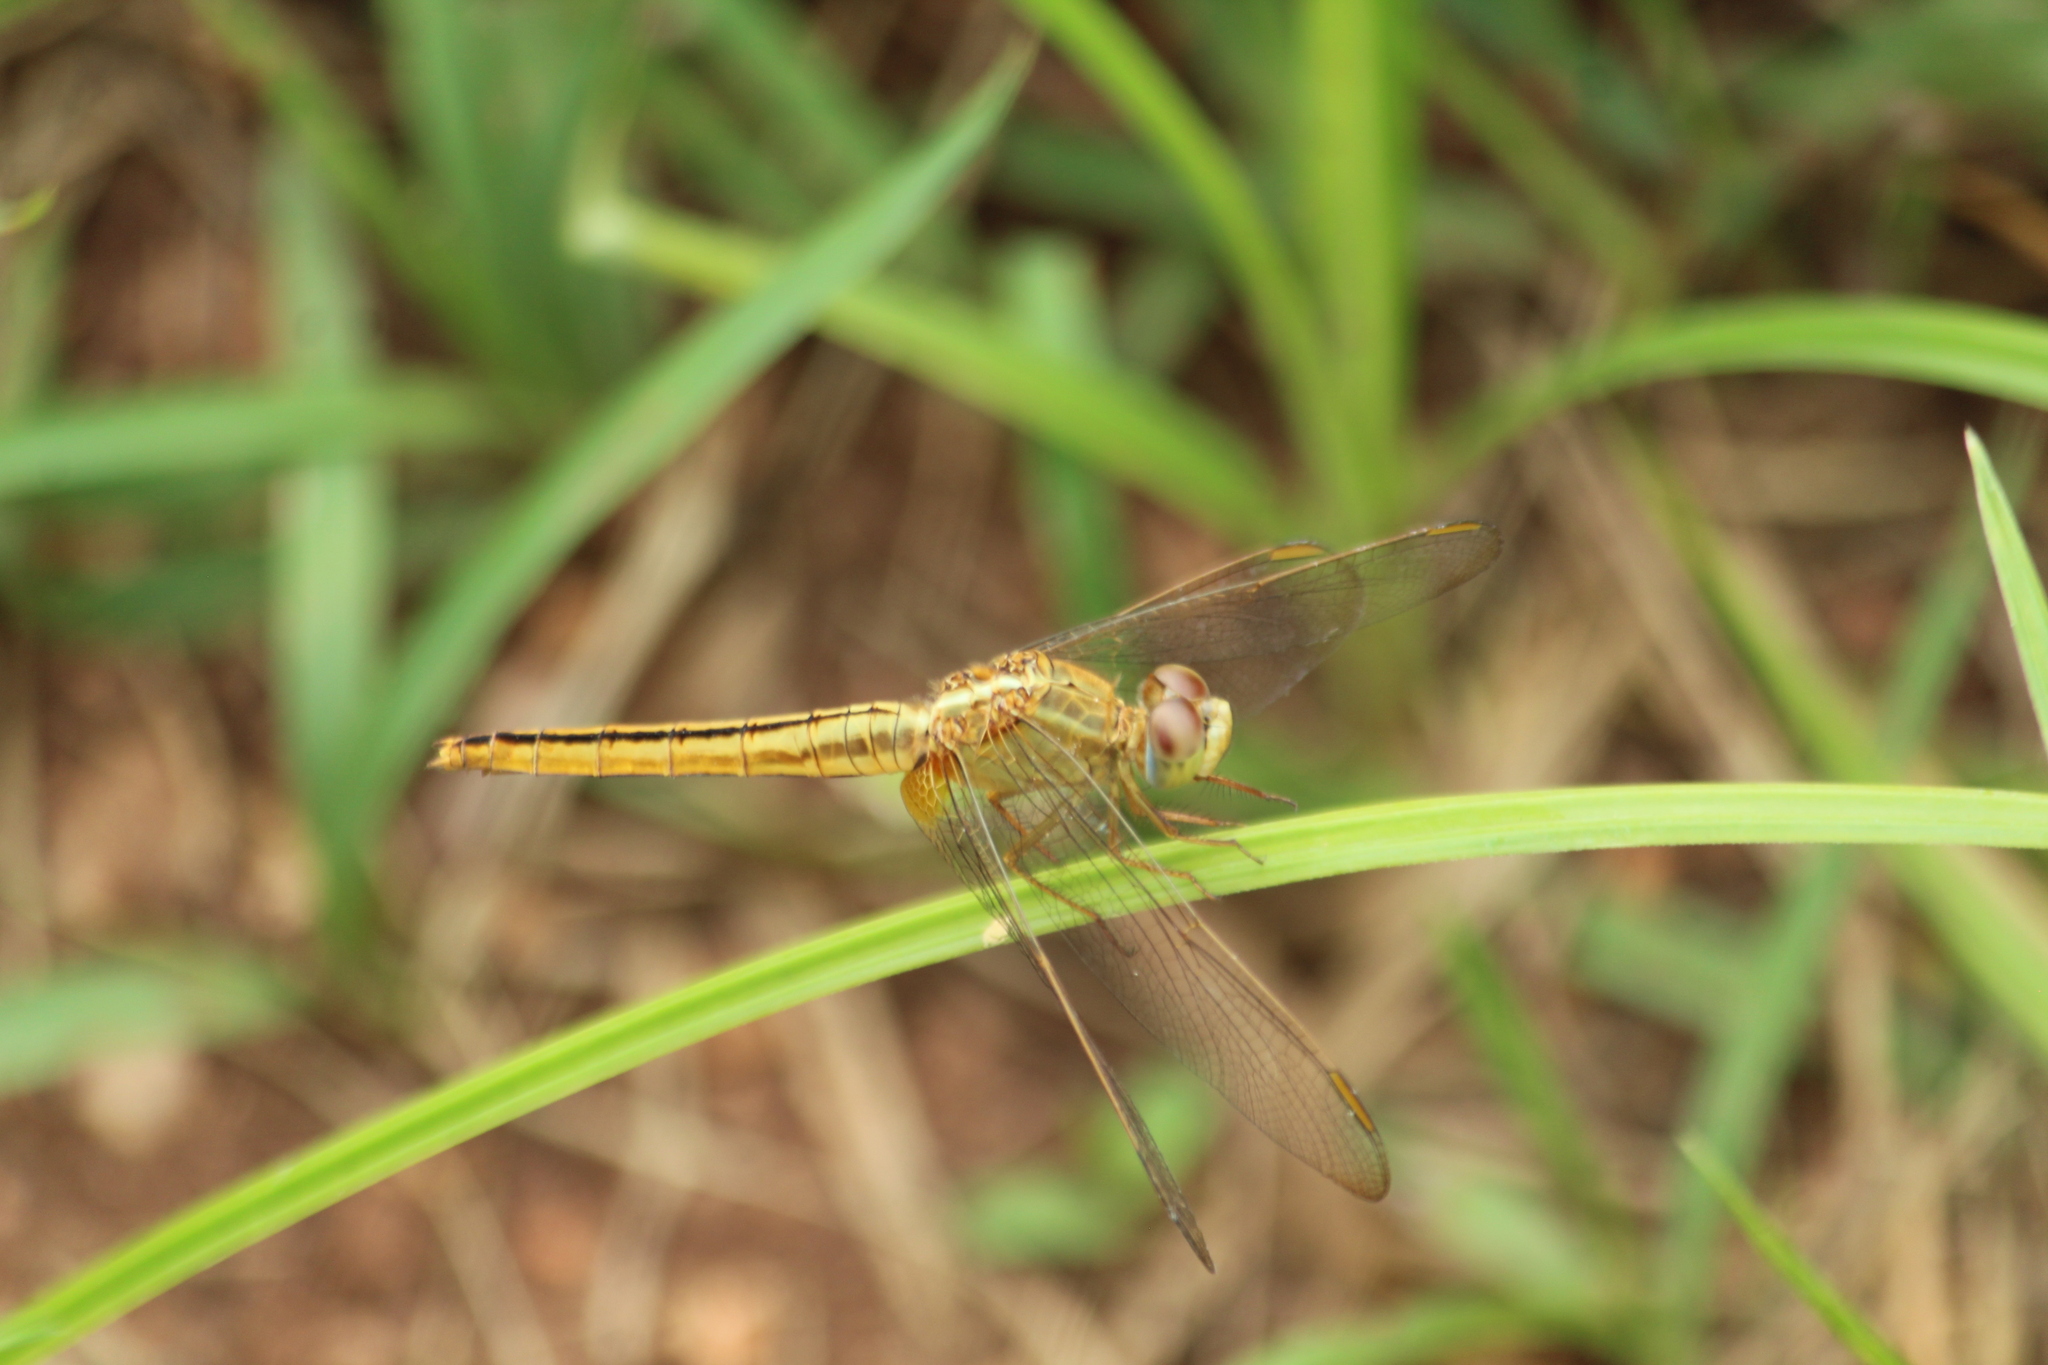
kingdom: Animalia
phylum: Arthropoda
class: Insecta
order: Odonata
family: Libellulidae
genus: Crocothemis
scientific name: Crocothemis servilia
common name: Scarlet skimmer
